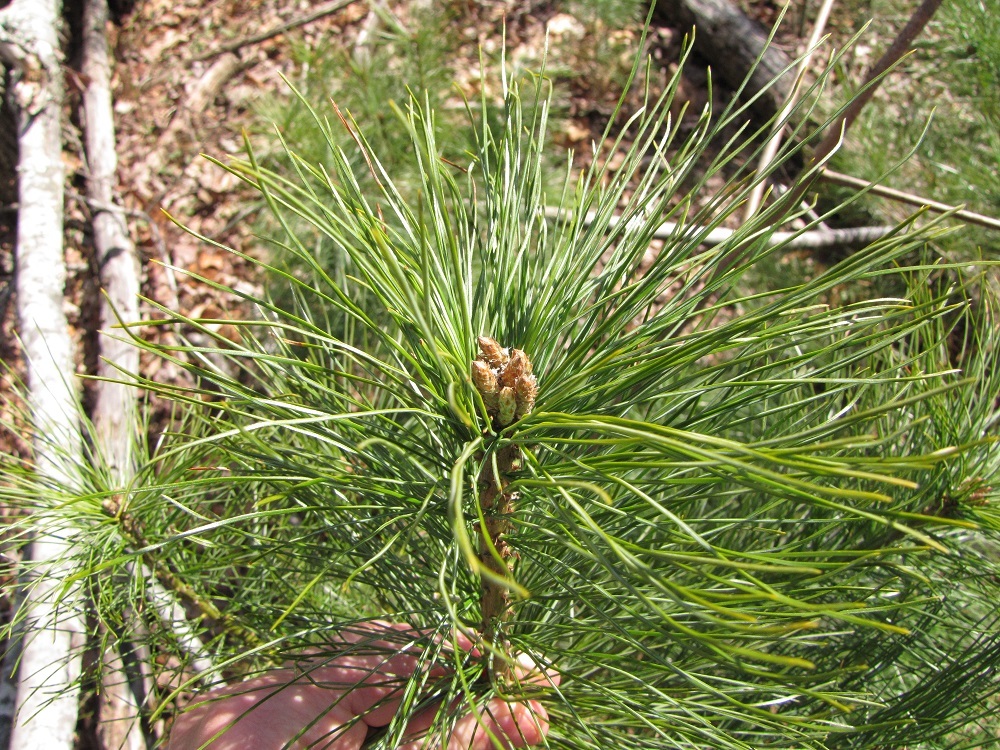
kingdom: Plantae
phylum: Tracheophyta
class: Pinopsida
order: Pinales
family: Pinaceae
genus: Pinus
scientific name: Pinus strobus
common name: Weymouth pine
